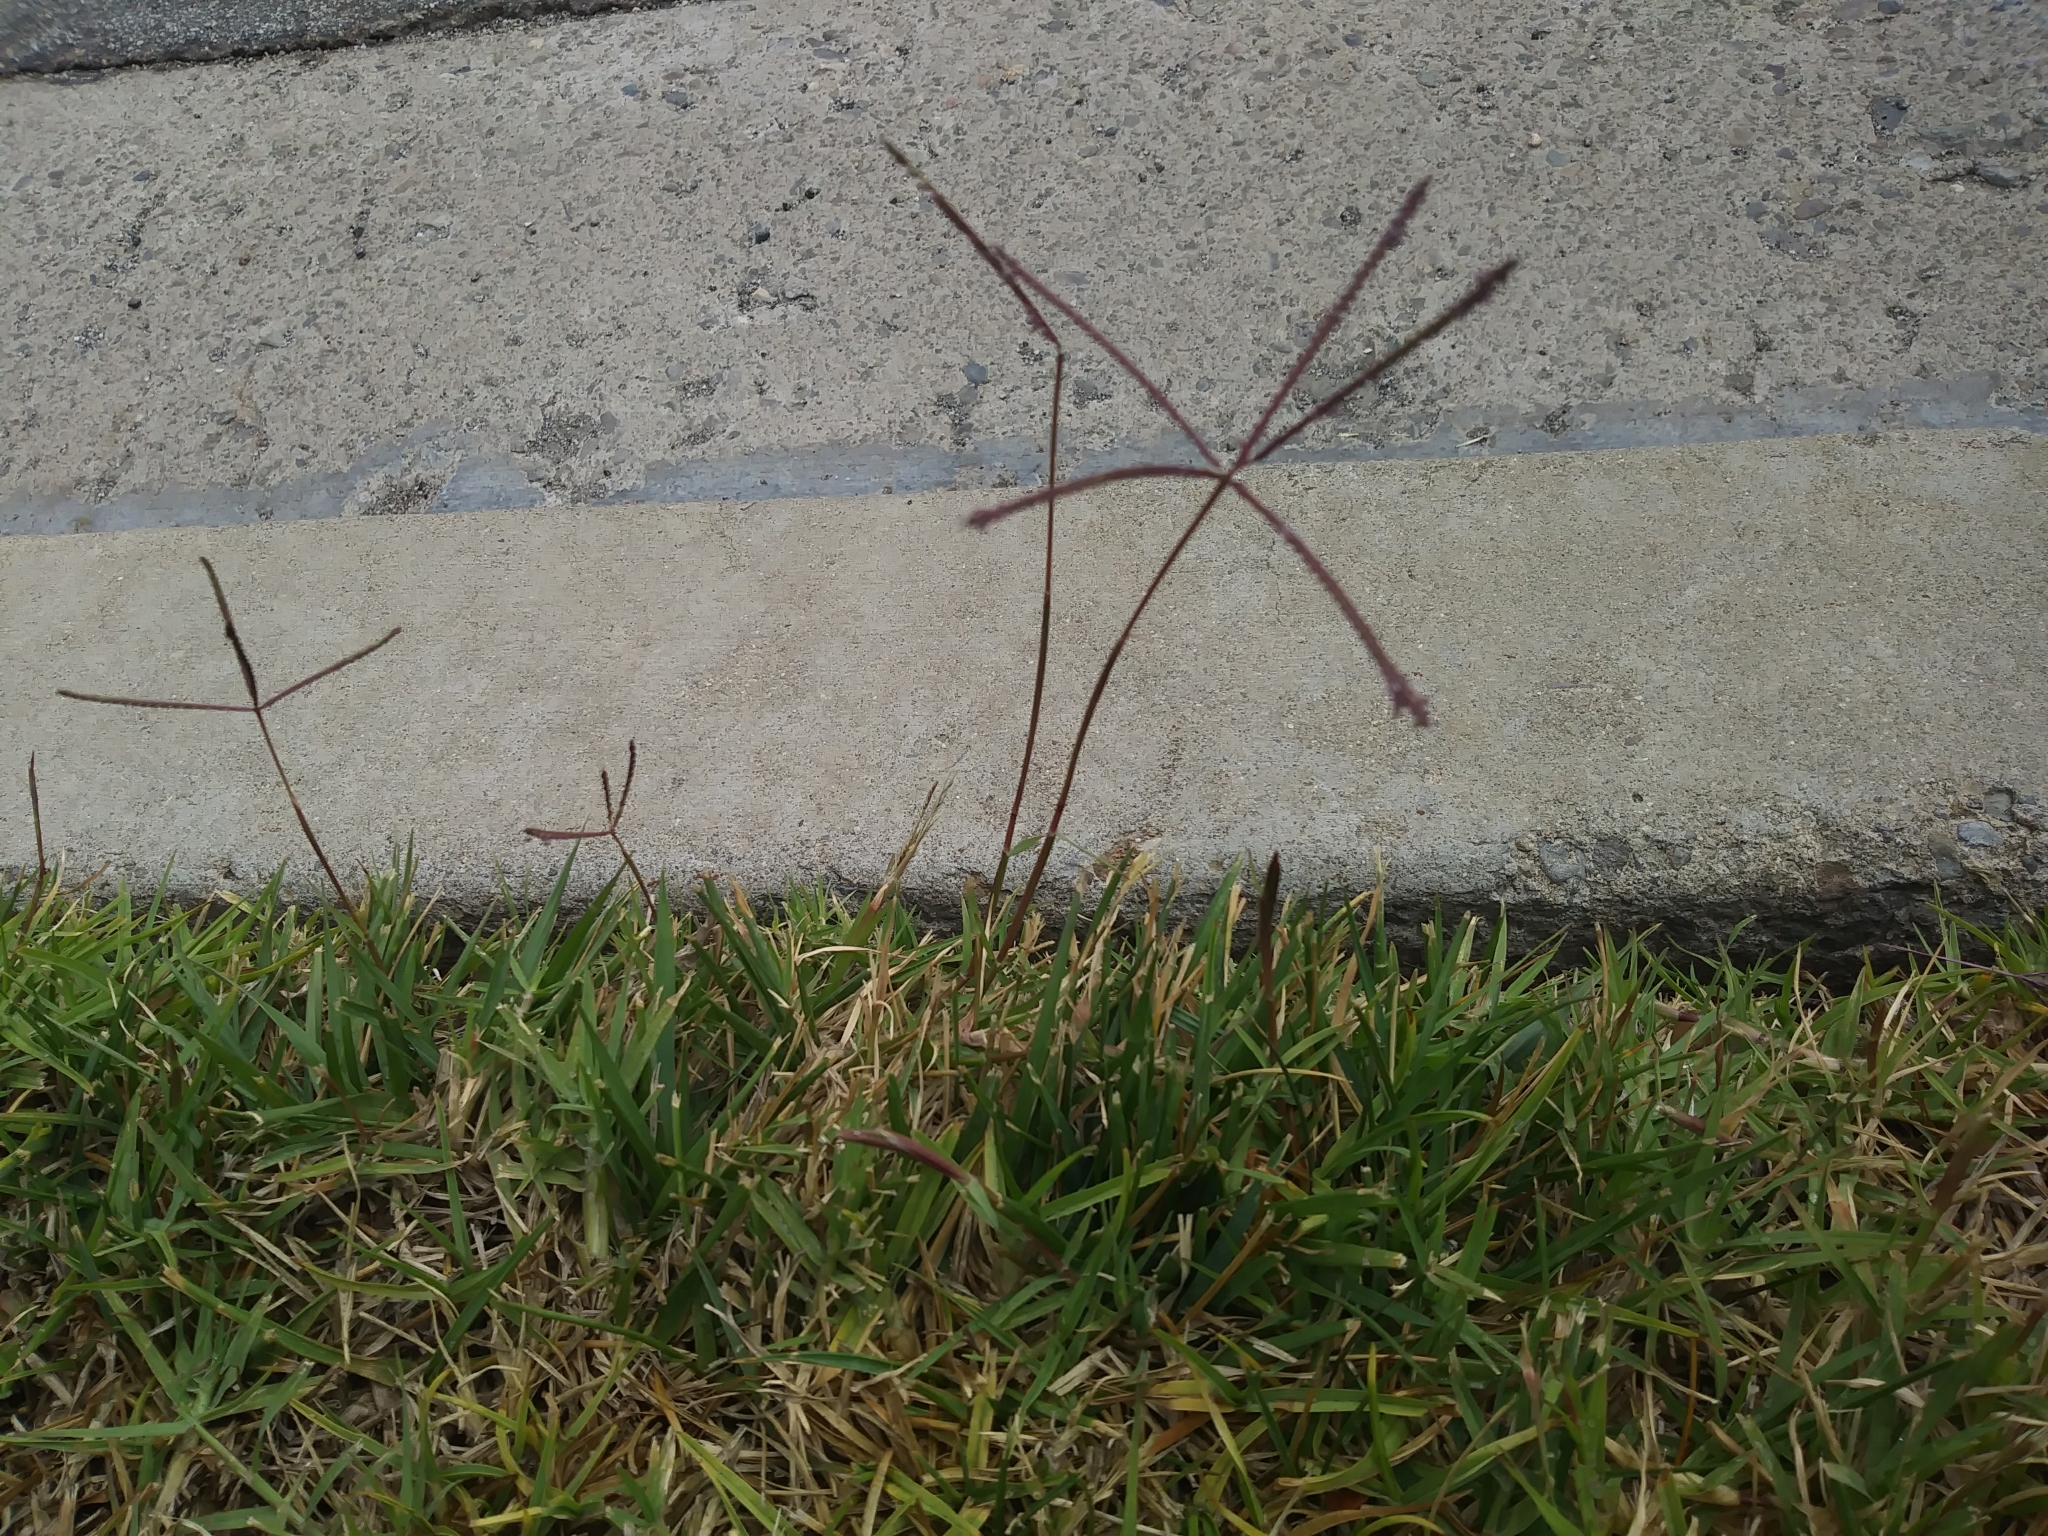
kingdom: Plantae
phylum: Tracheophyta
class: Liliopsida
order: Poales
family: Poaceae
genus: Digitaria
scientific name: Digitaria sanguinalis
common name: Hairy crabgrass
